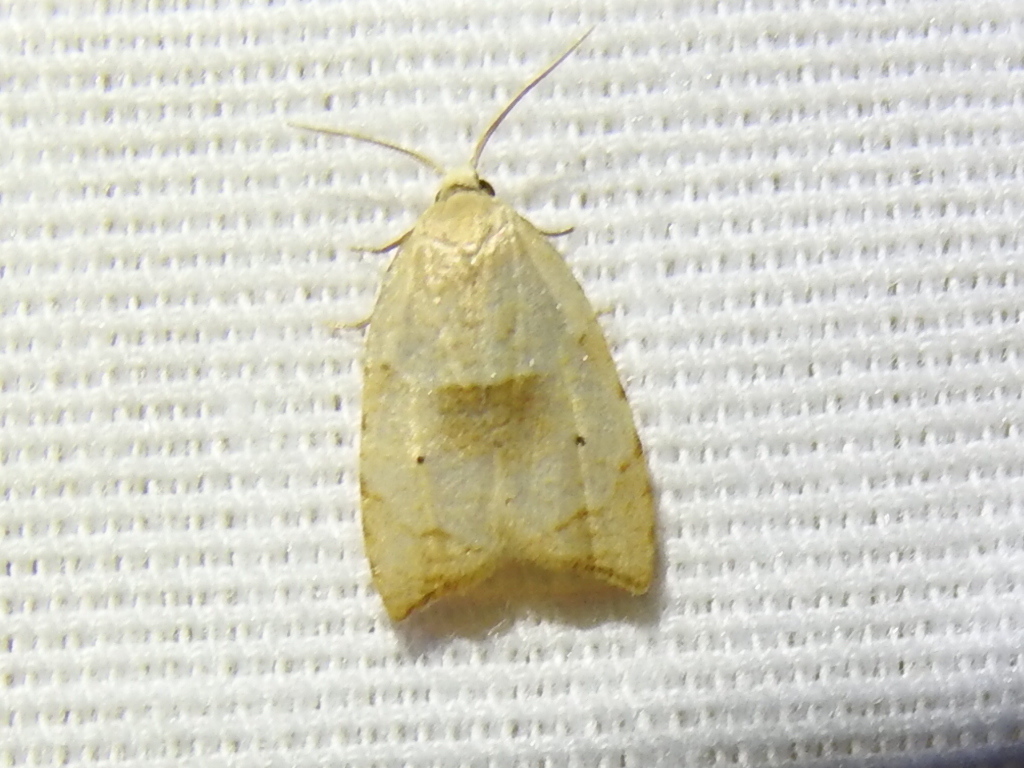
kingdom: Animalia
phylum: Arthropoda
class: Insecta
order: Lepidoptera
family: Tortricidae
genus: Coelostathma
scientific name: Coelostathma discopunctana
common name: Batman moth
